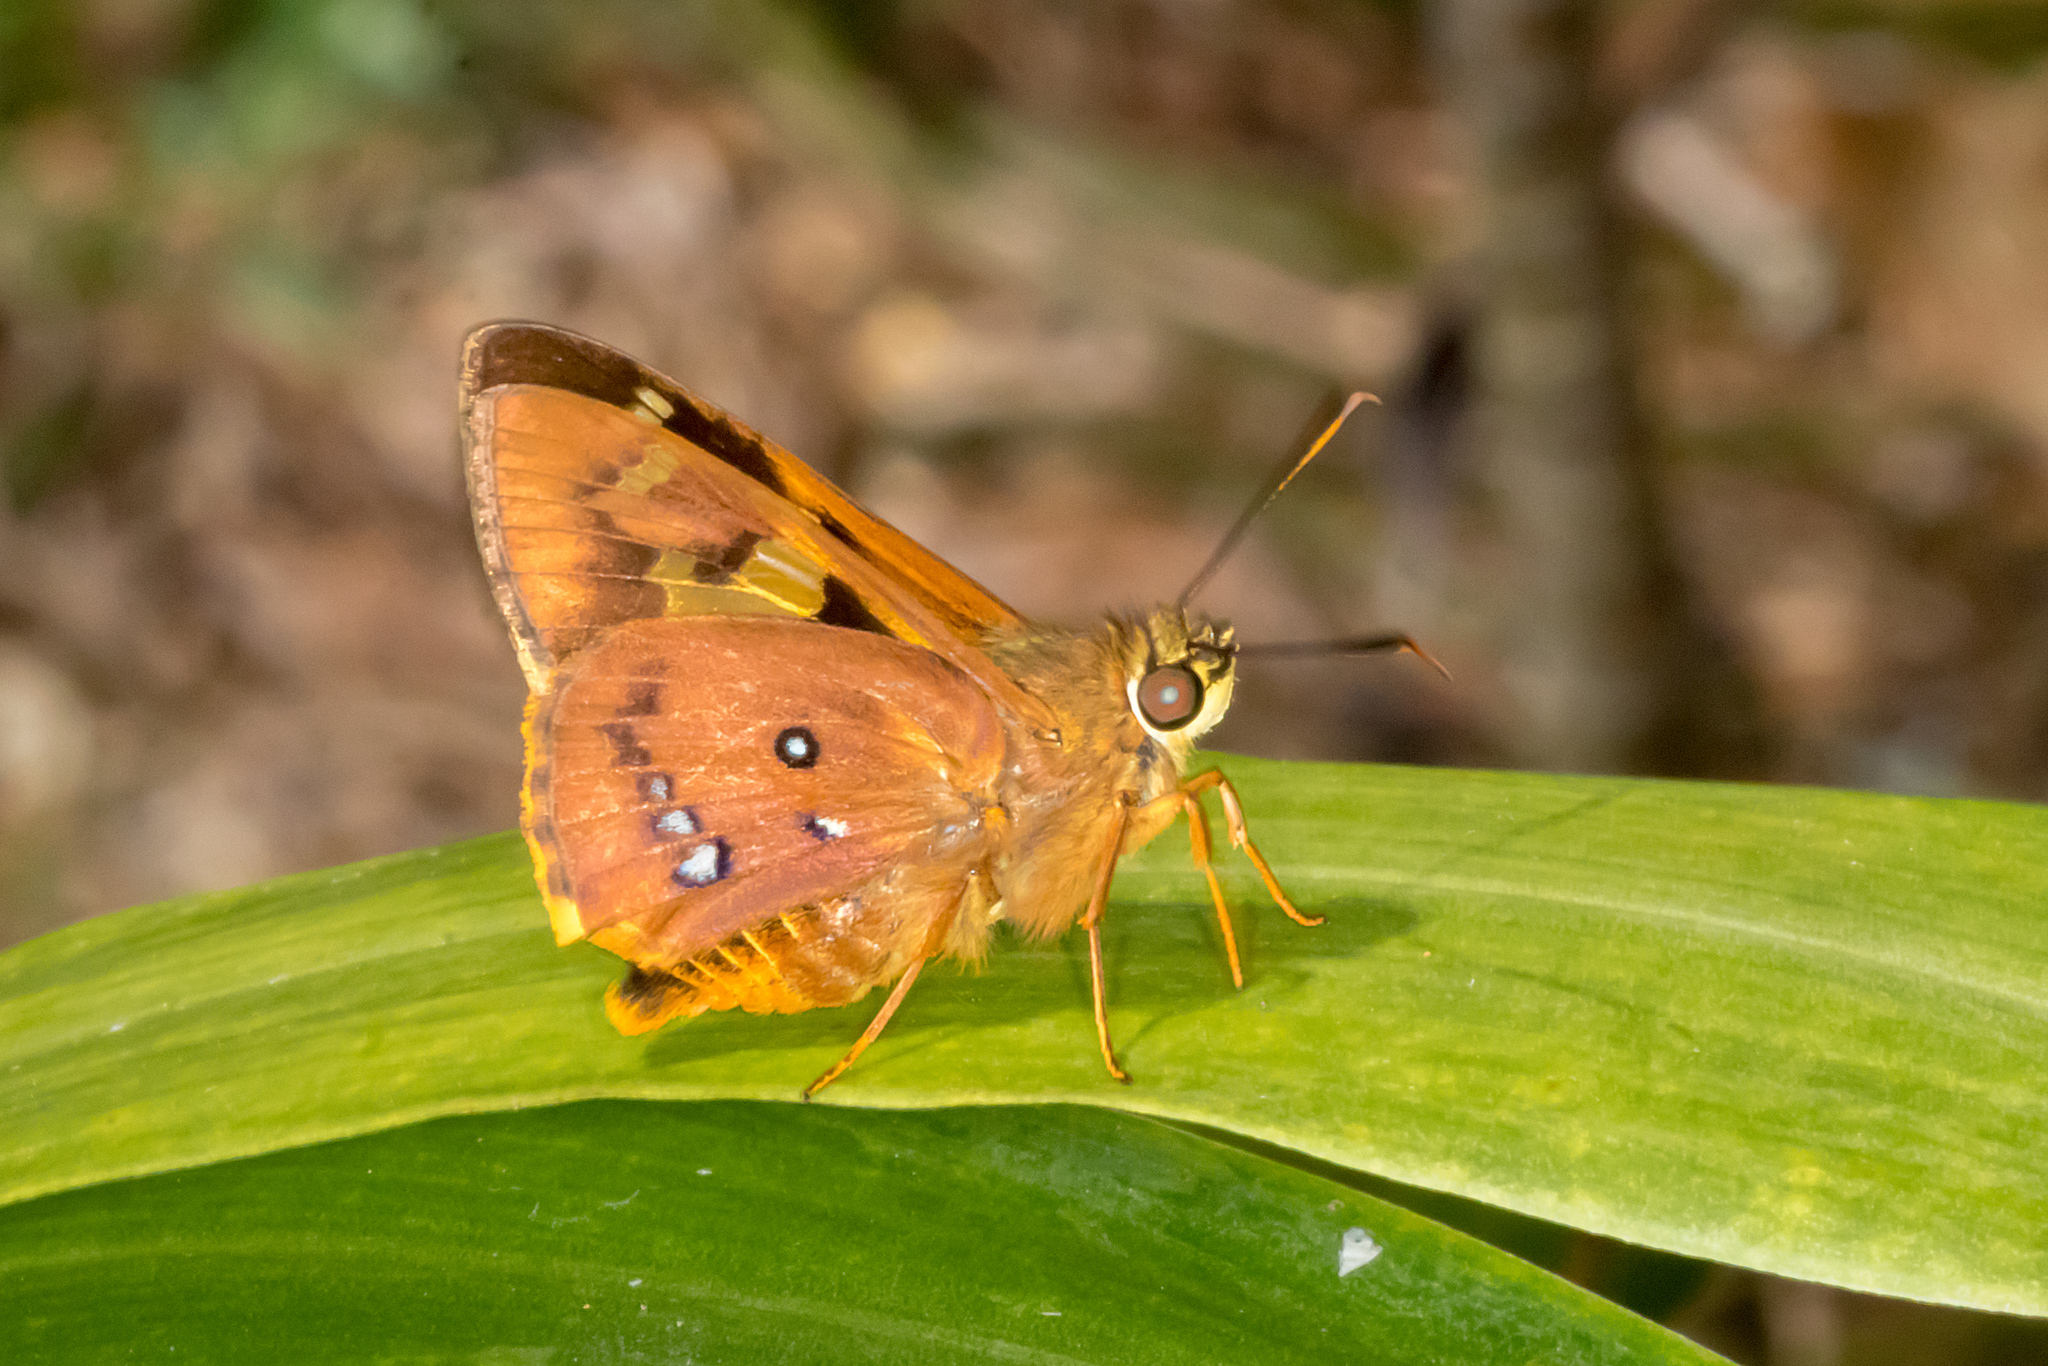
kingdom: Animalia
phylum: Arthropoda
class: Insecta
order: Lepidoptera
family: Hesperiidae
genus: Trapezites
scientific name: Trapezites symmomus
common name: Splendid ochre
